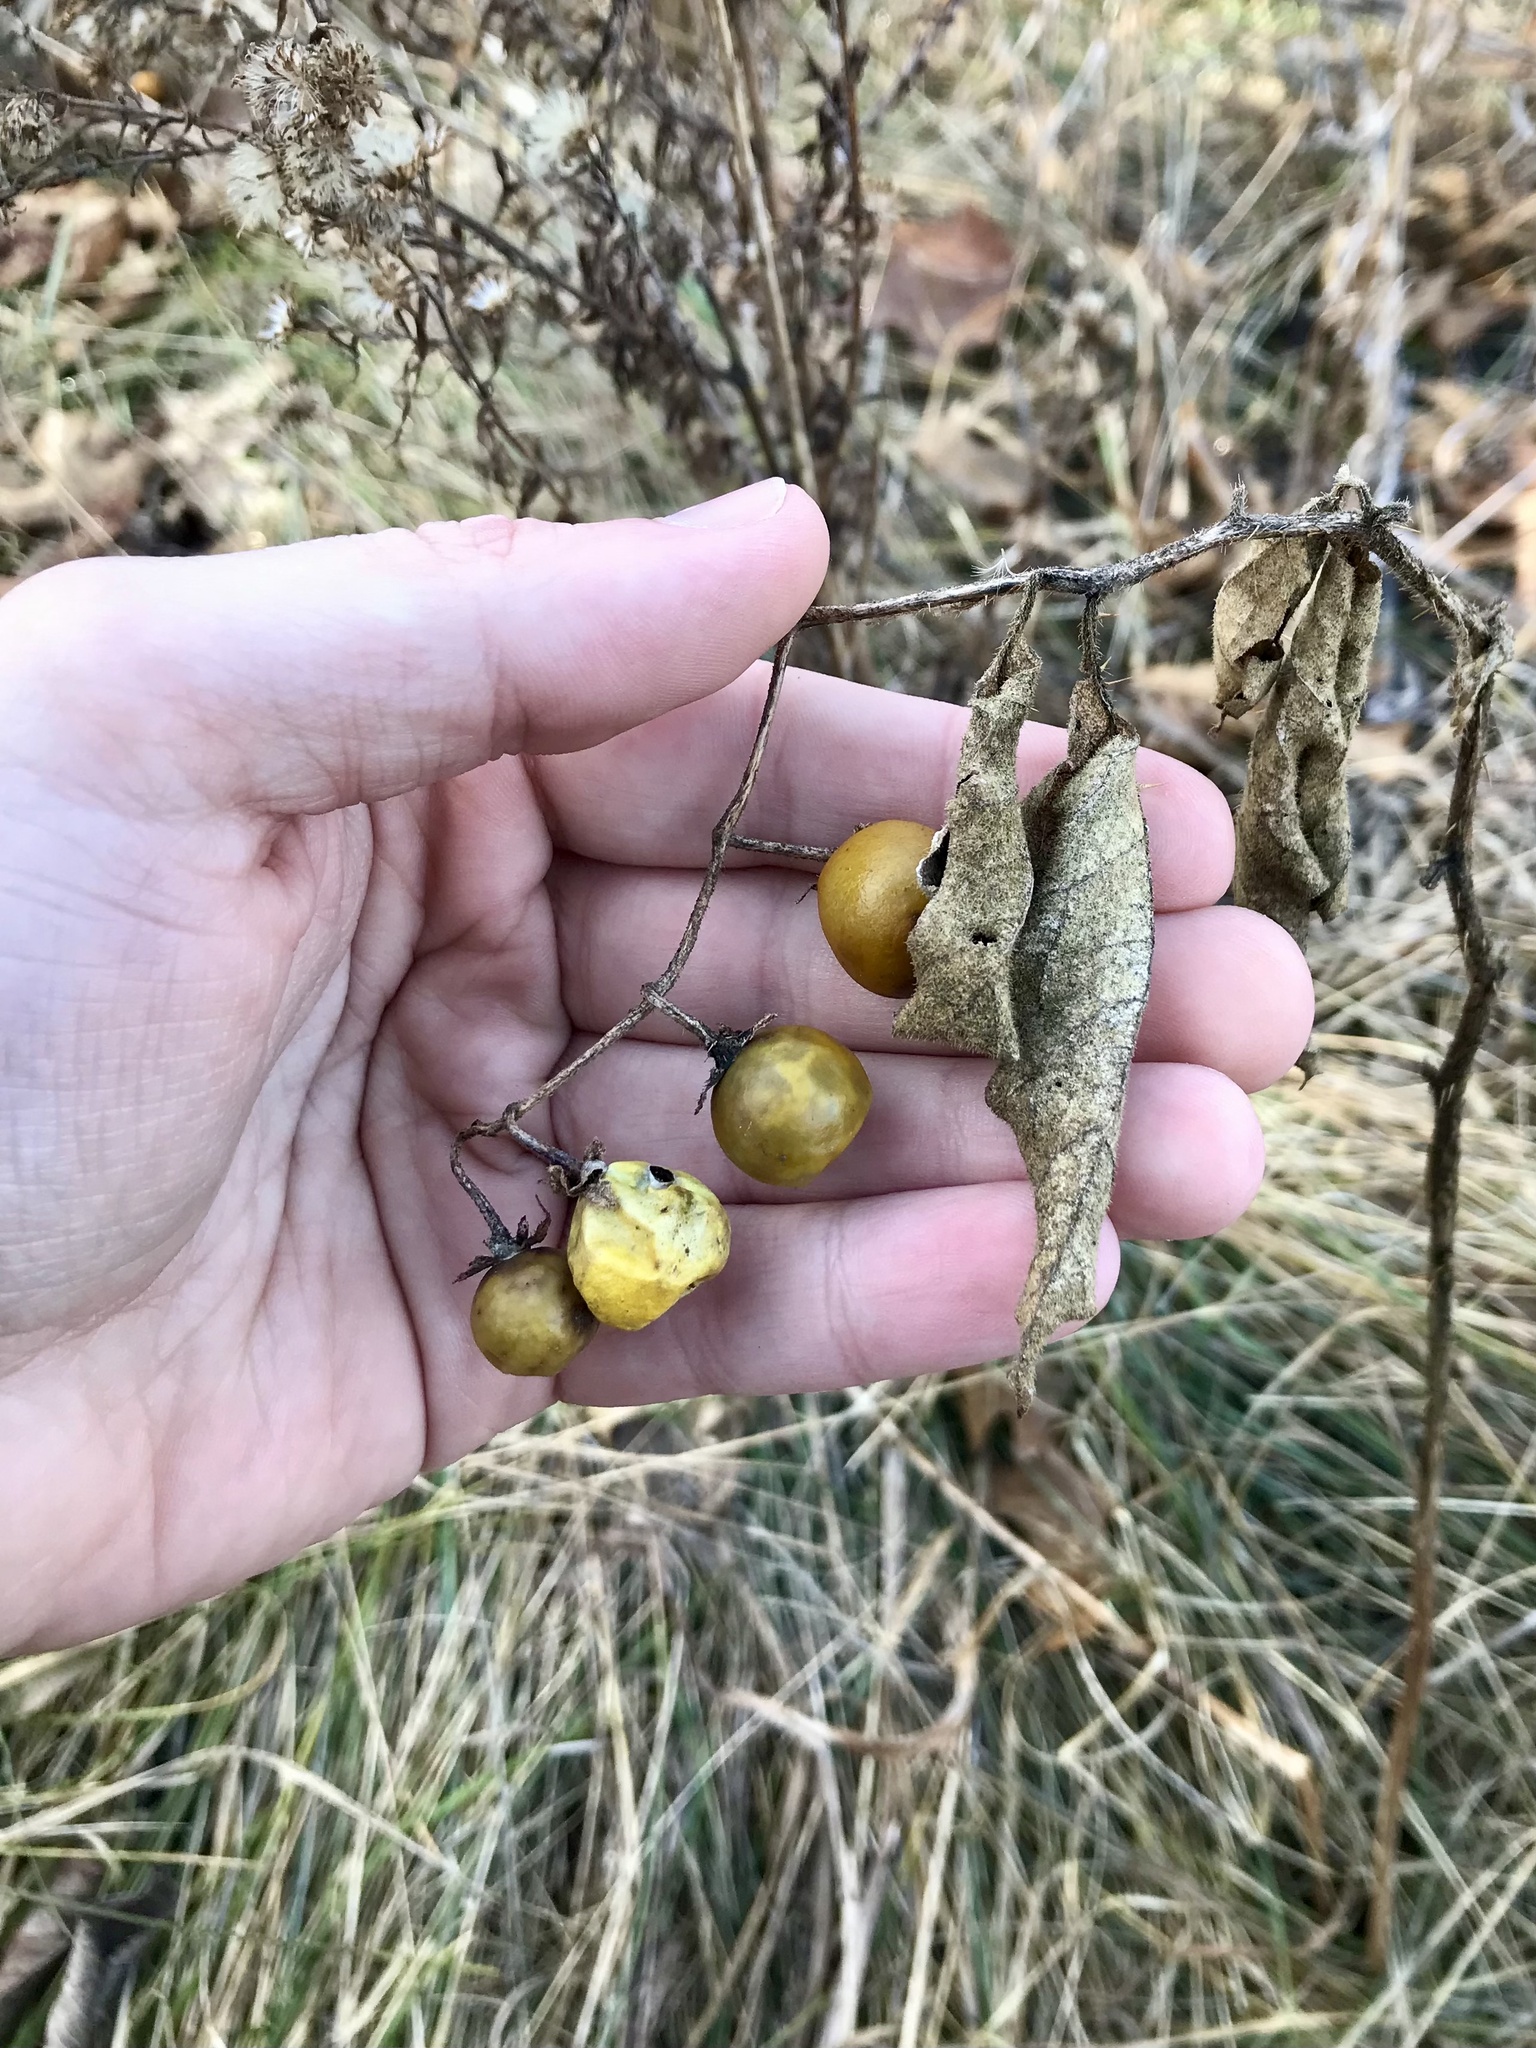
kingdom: Plantae
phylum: Tracheophyta
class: Magnoliopsida
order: Solanales
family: Solanaceae
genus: Solanum
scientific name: Solanum carolinense
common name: Horse-nettle
